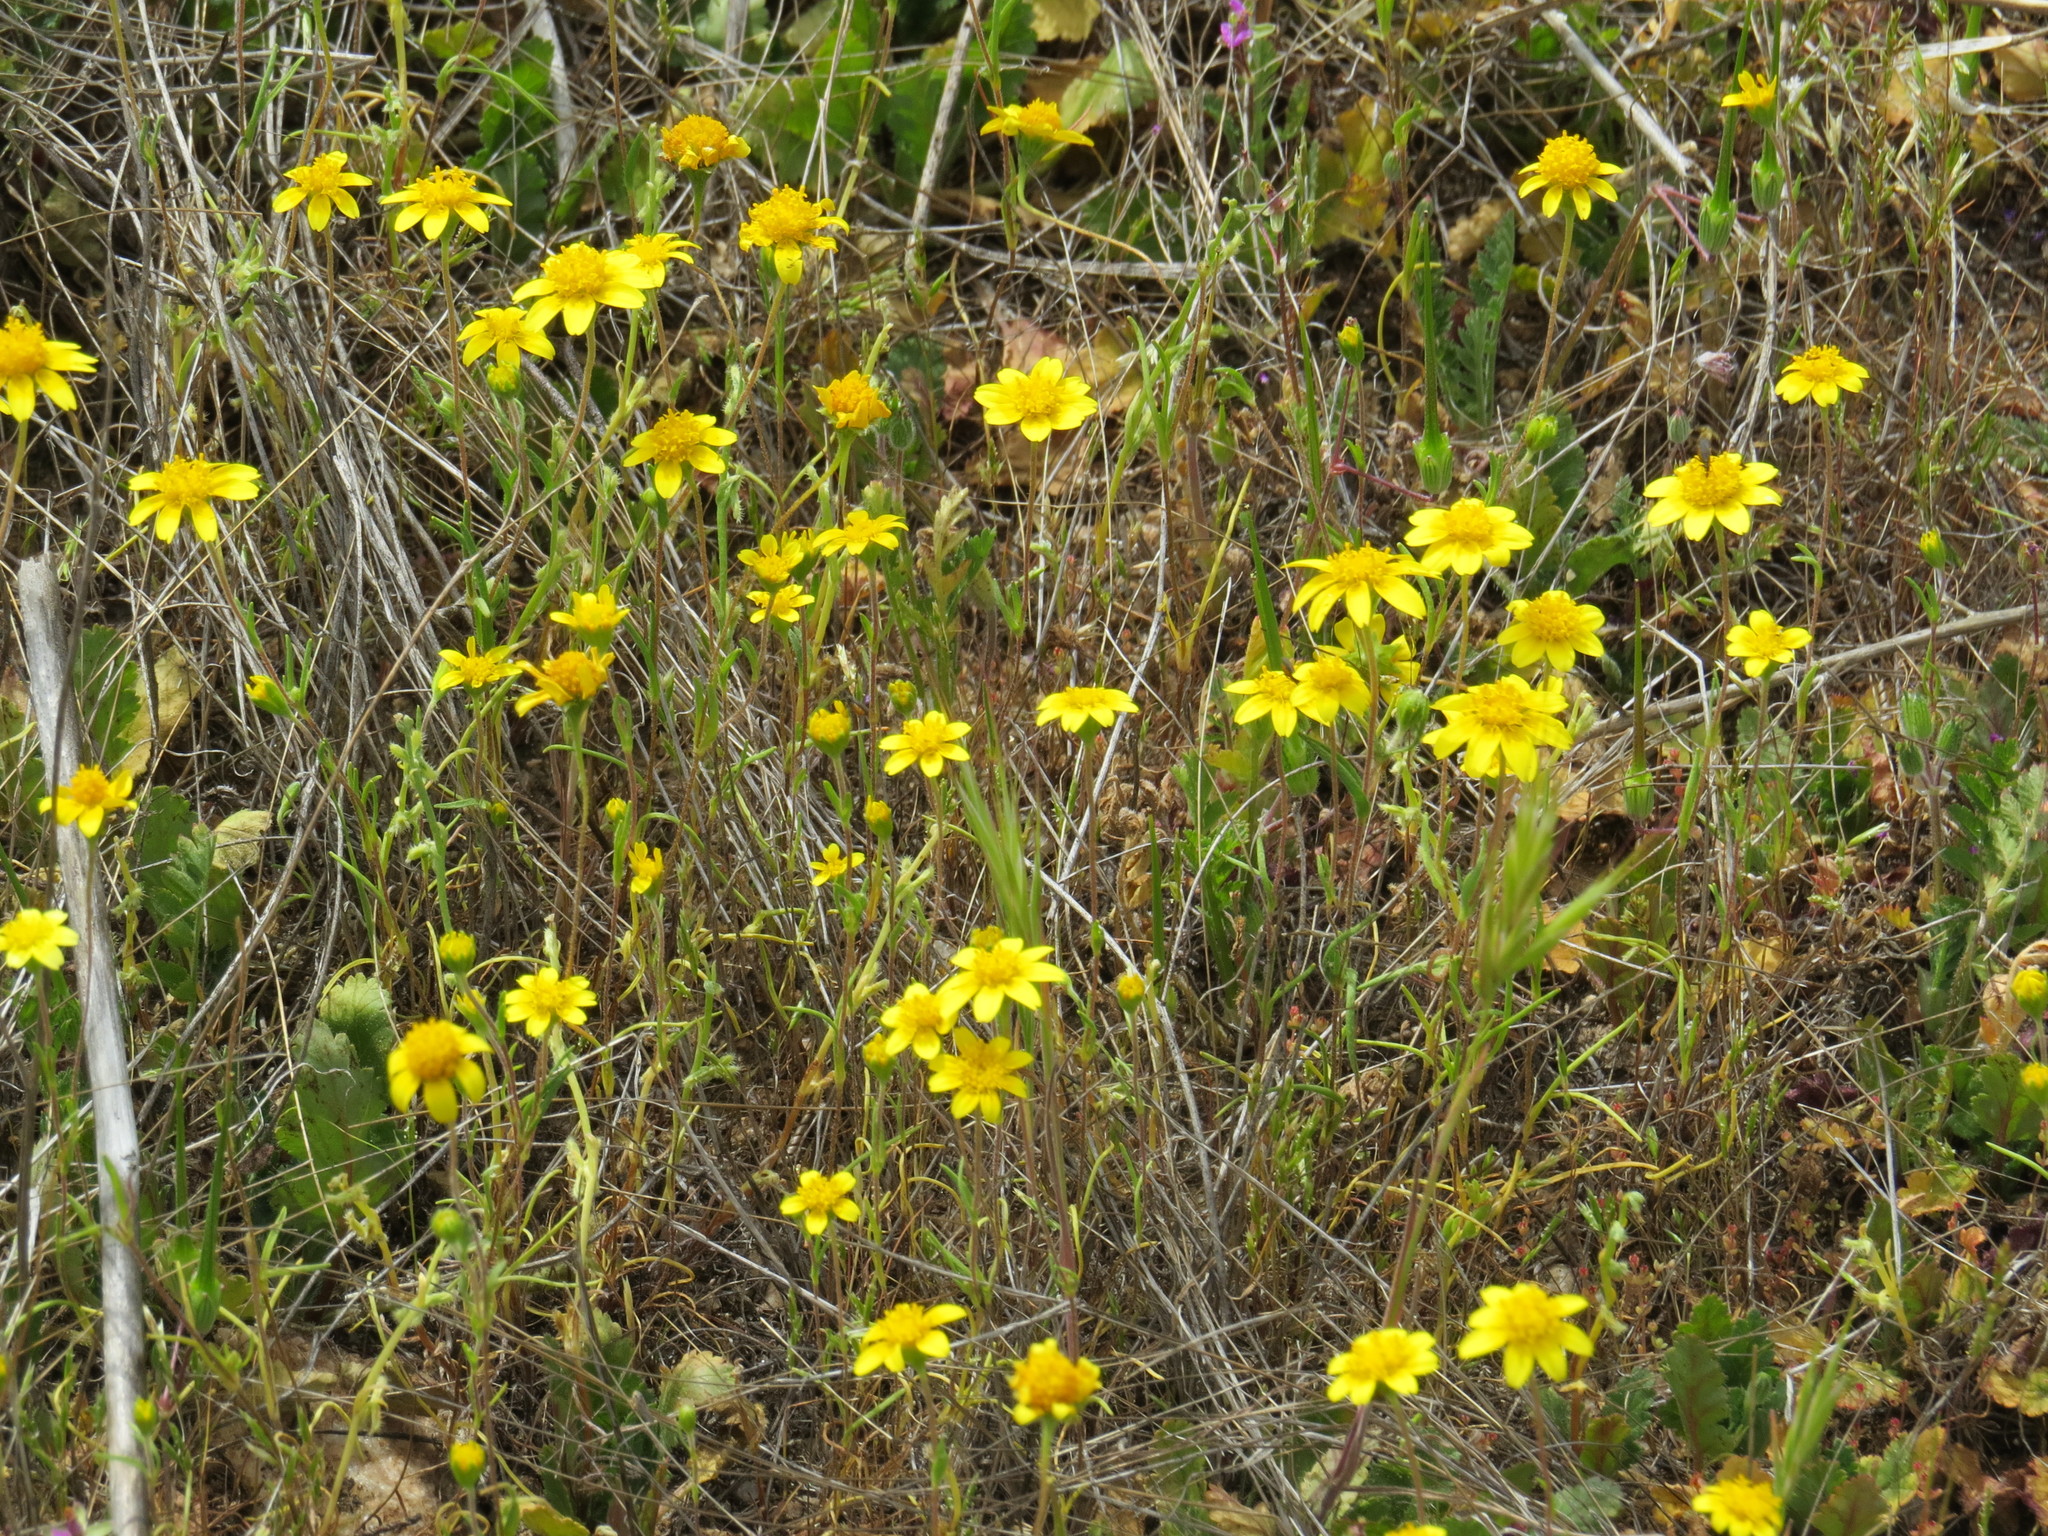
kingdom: Plantae
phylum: Tracheophyta
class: Magnoliopsida
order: Asterales
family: Asteraceae
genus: Lasthenia
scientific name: Lasthenia gracilis
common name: Common goldfields
